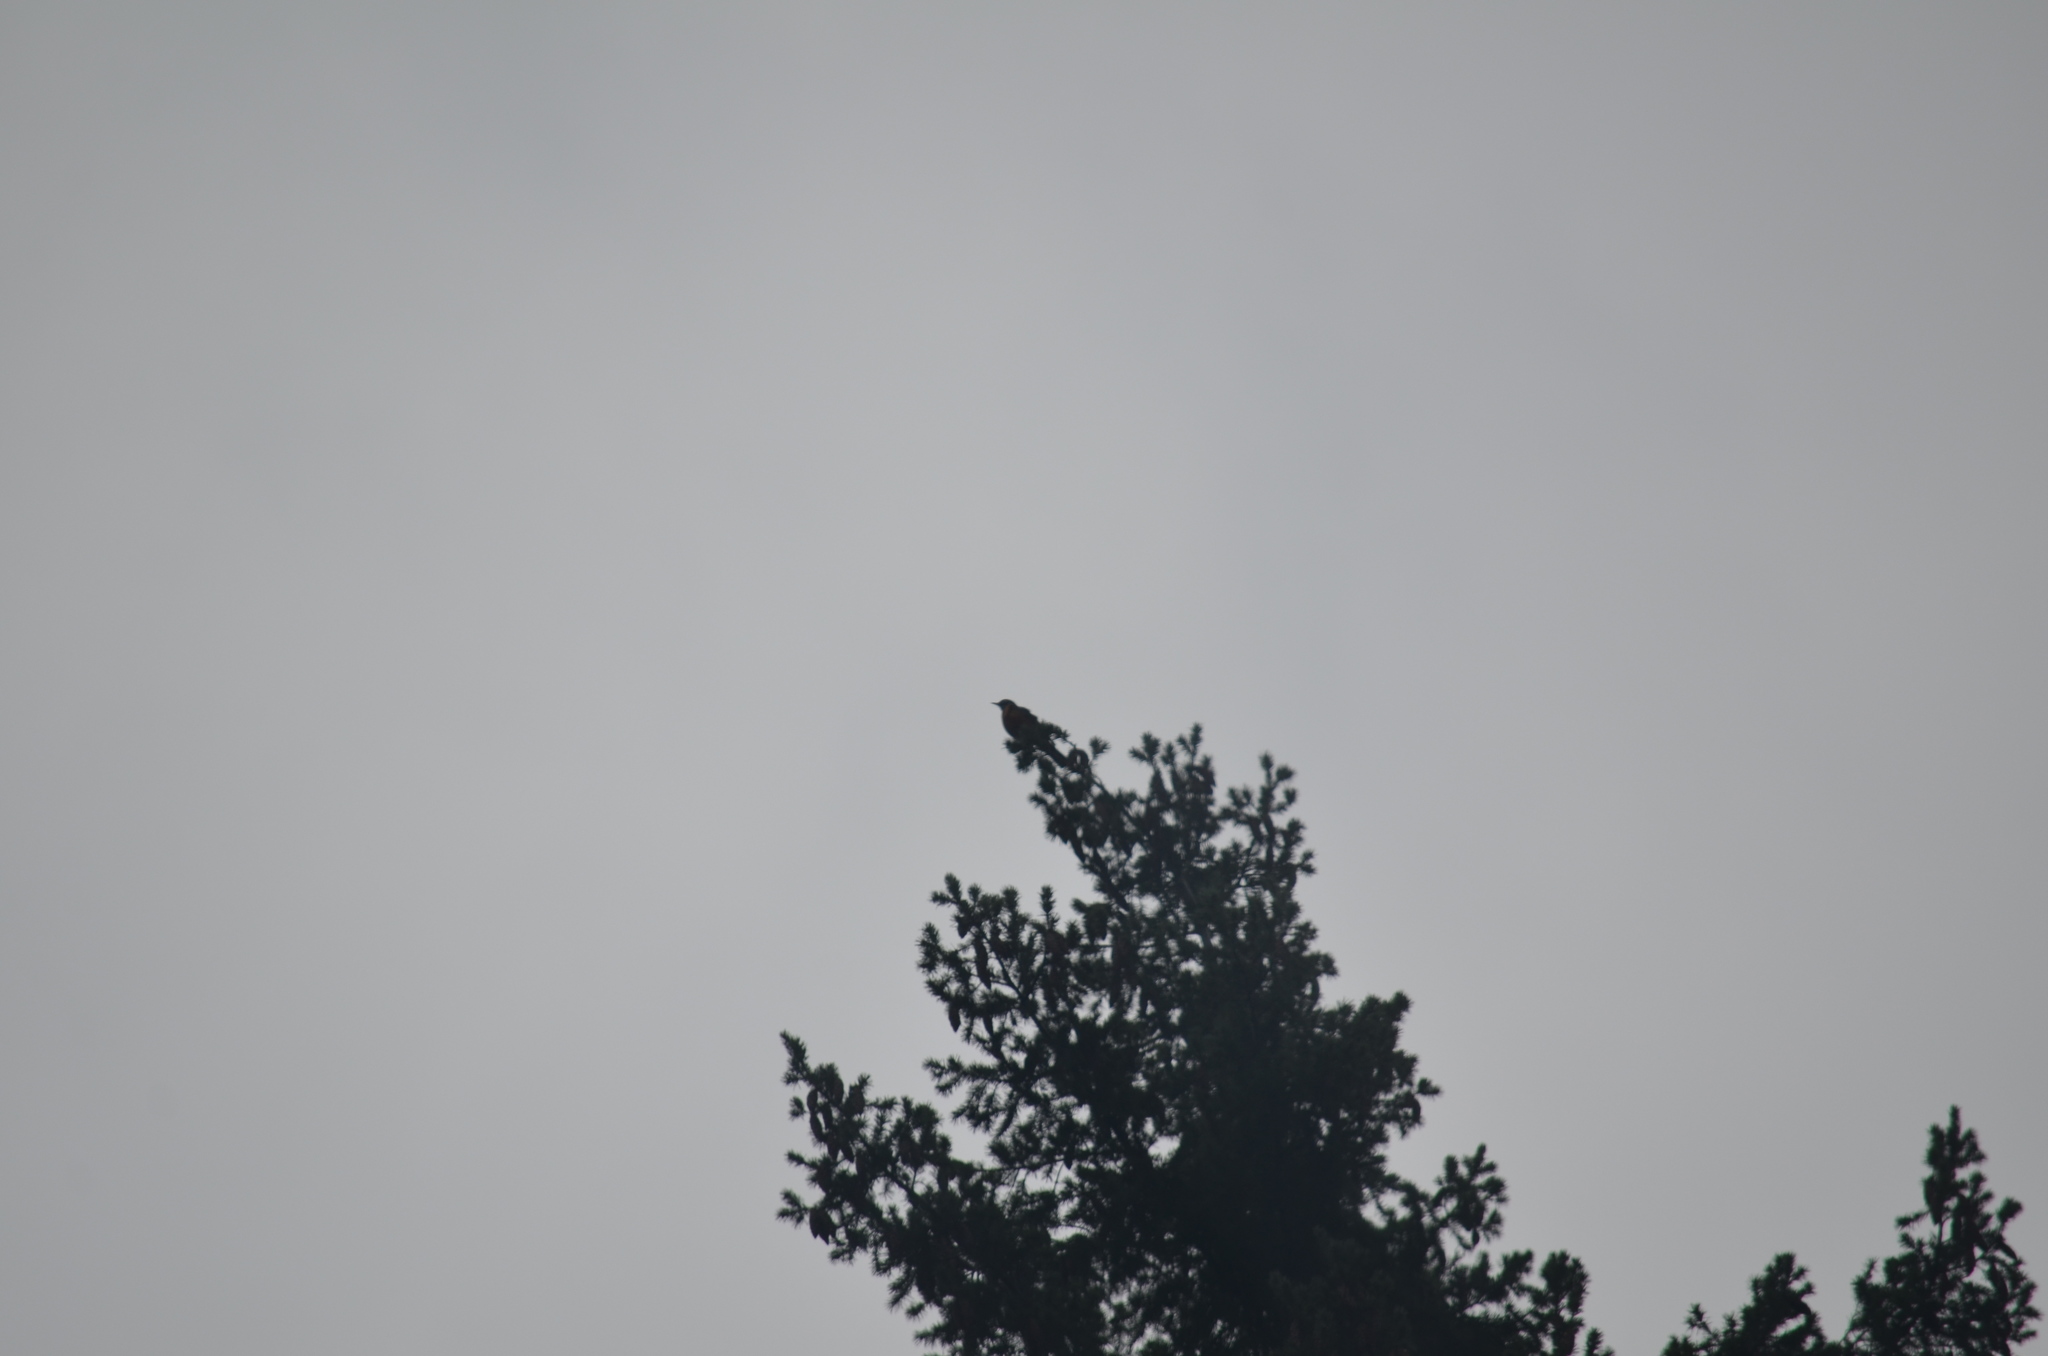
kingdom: Animalia
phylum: Chordata
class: Aves
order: Passeriformes
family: Turdidae
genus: Turdus
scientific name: Turdus migratorius
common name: American robin
